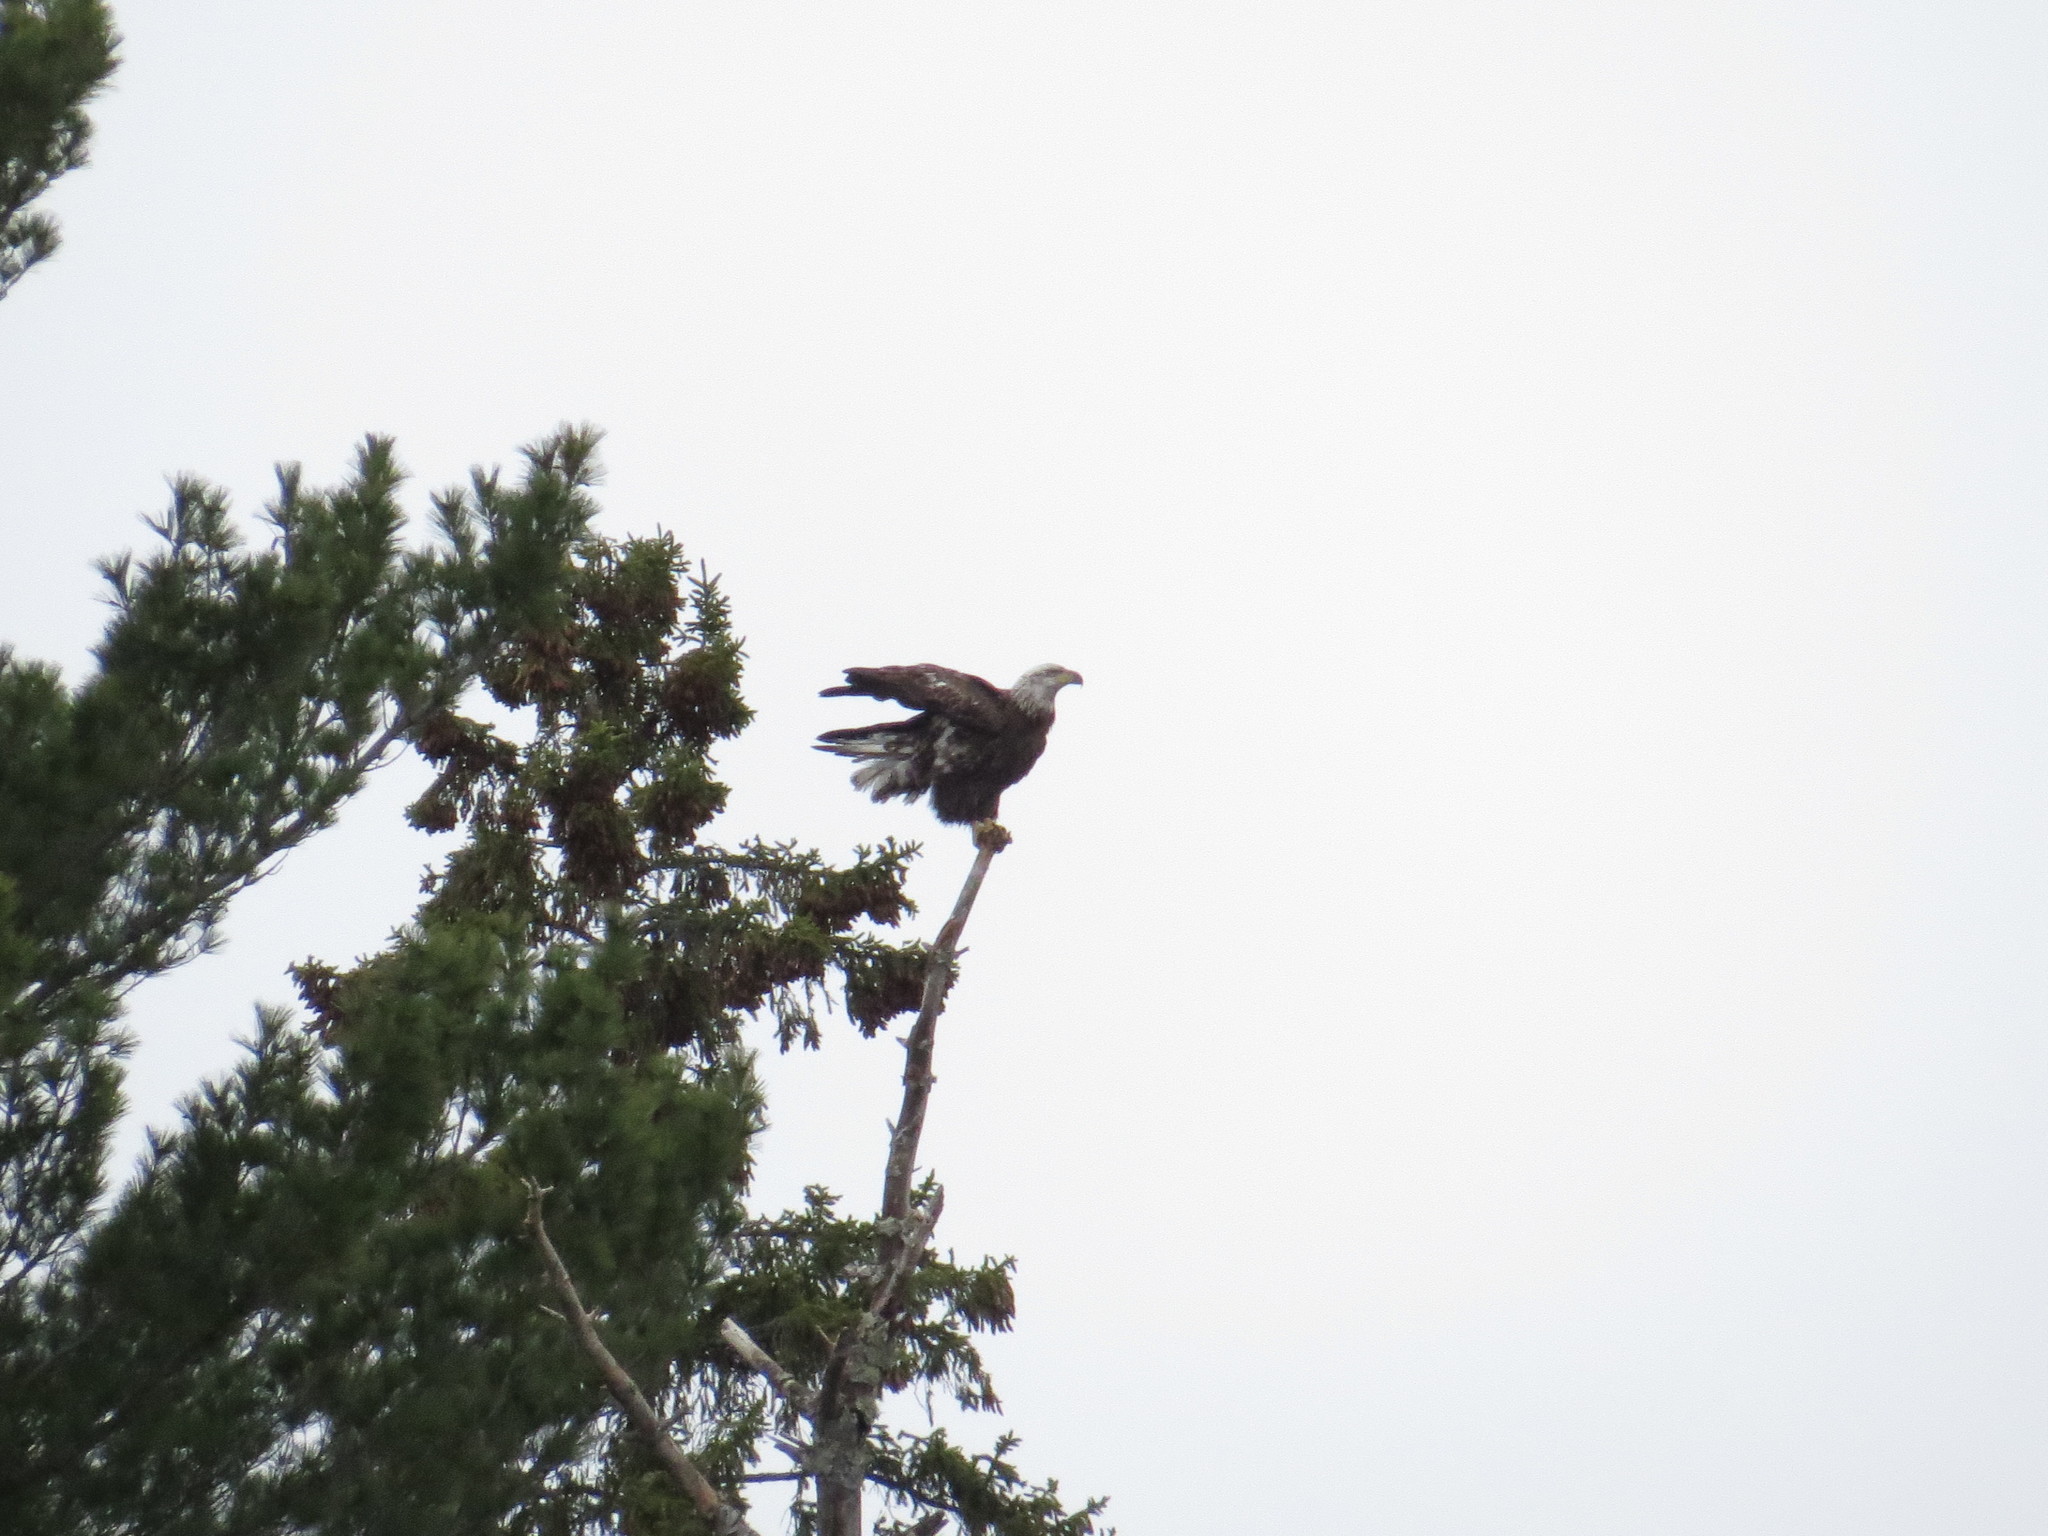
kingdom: Animalia
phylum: Chordata
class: Aves
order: Accipitriformes
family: Accipitridae
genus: Haliaeetus
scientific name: Haliaeetus leucocephalus
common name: Bald eagle
